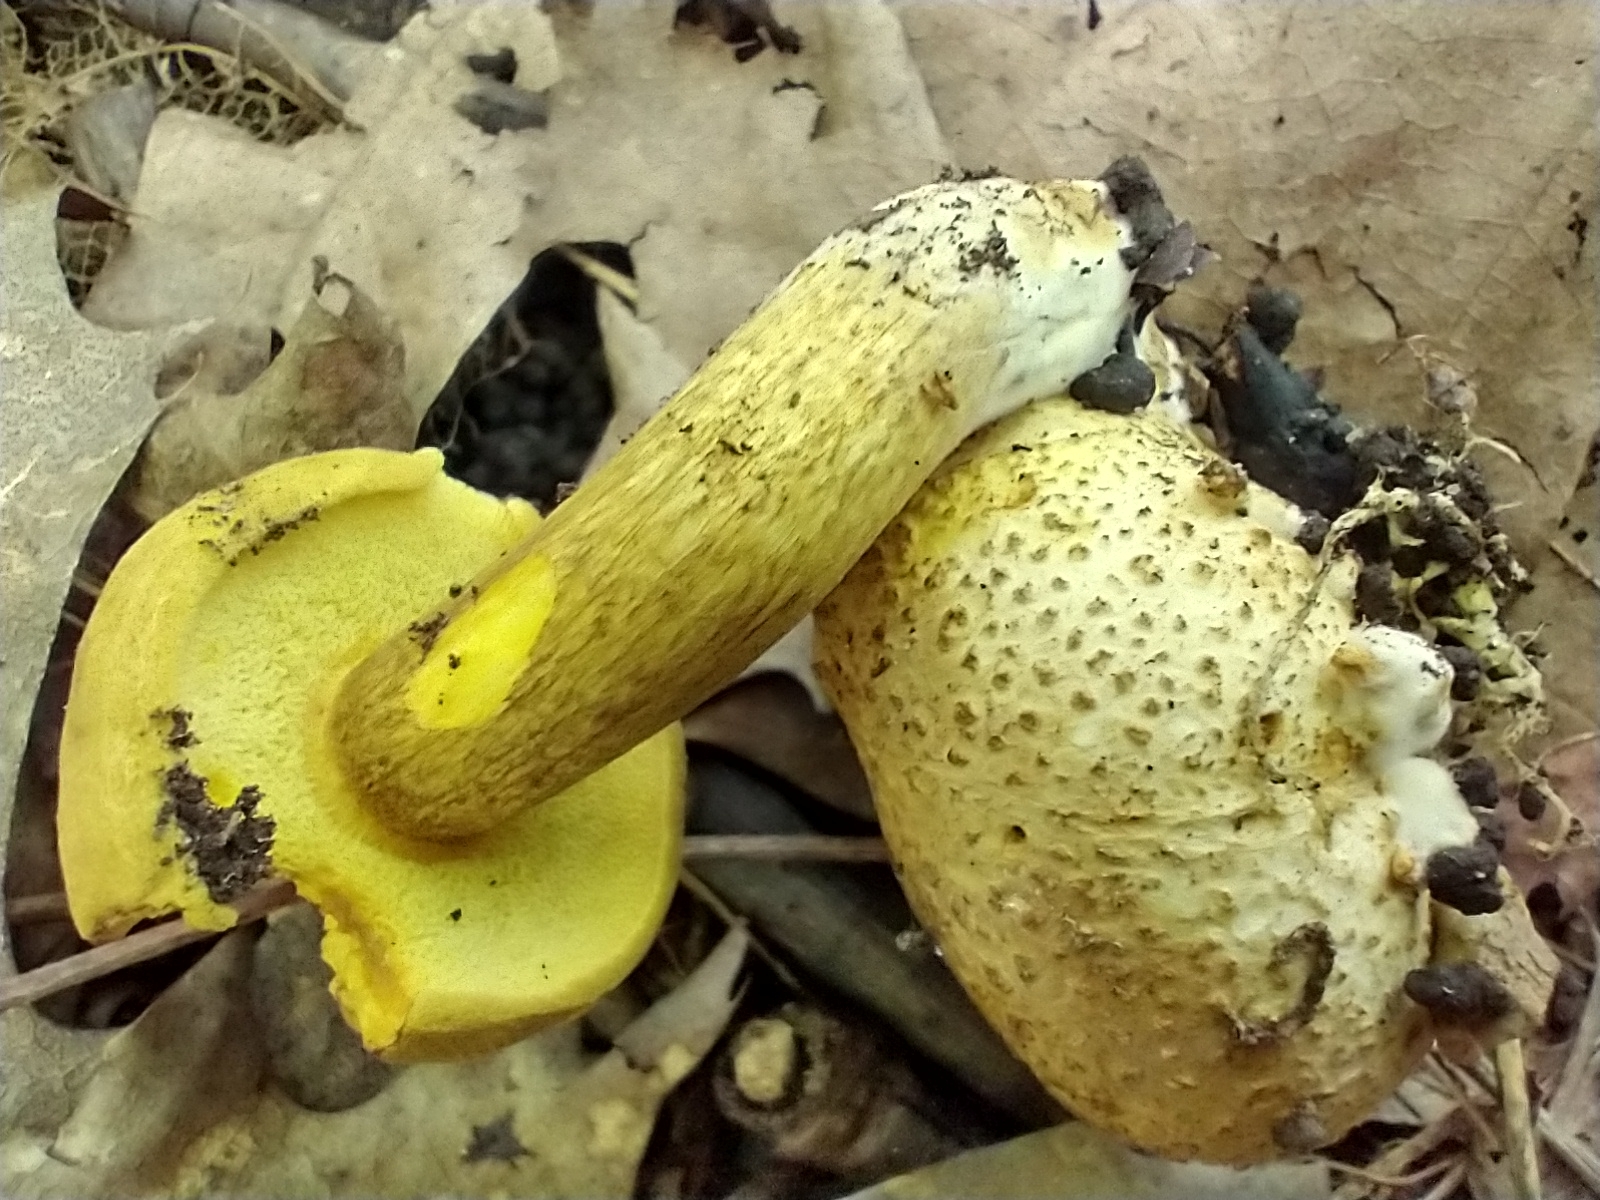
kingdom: Fungi
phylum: Basidiomycota
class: Agaricomycetes
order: Boletales
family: Boletaceae
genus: Pseudoboletus
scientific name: Pseudoboletus parasiticus
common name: Parasitic bolete
